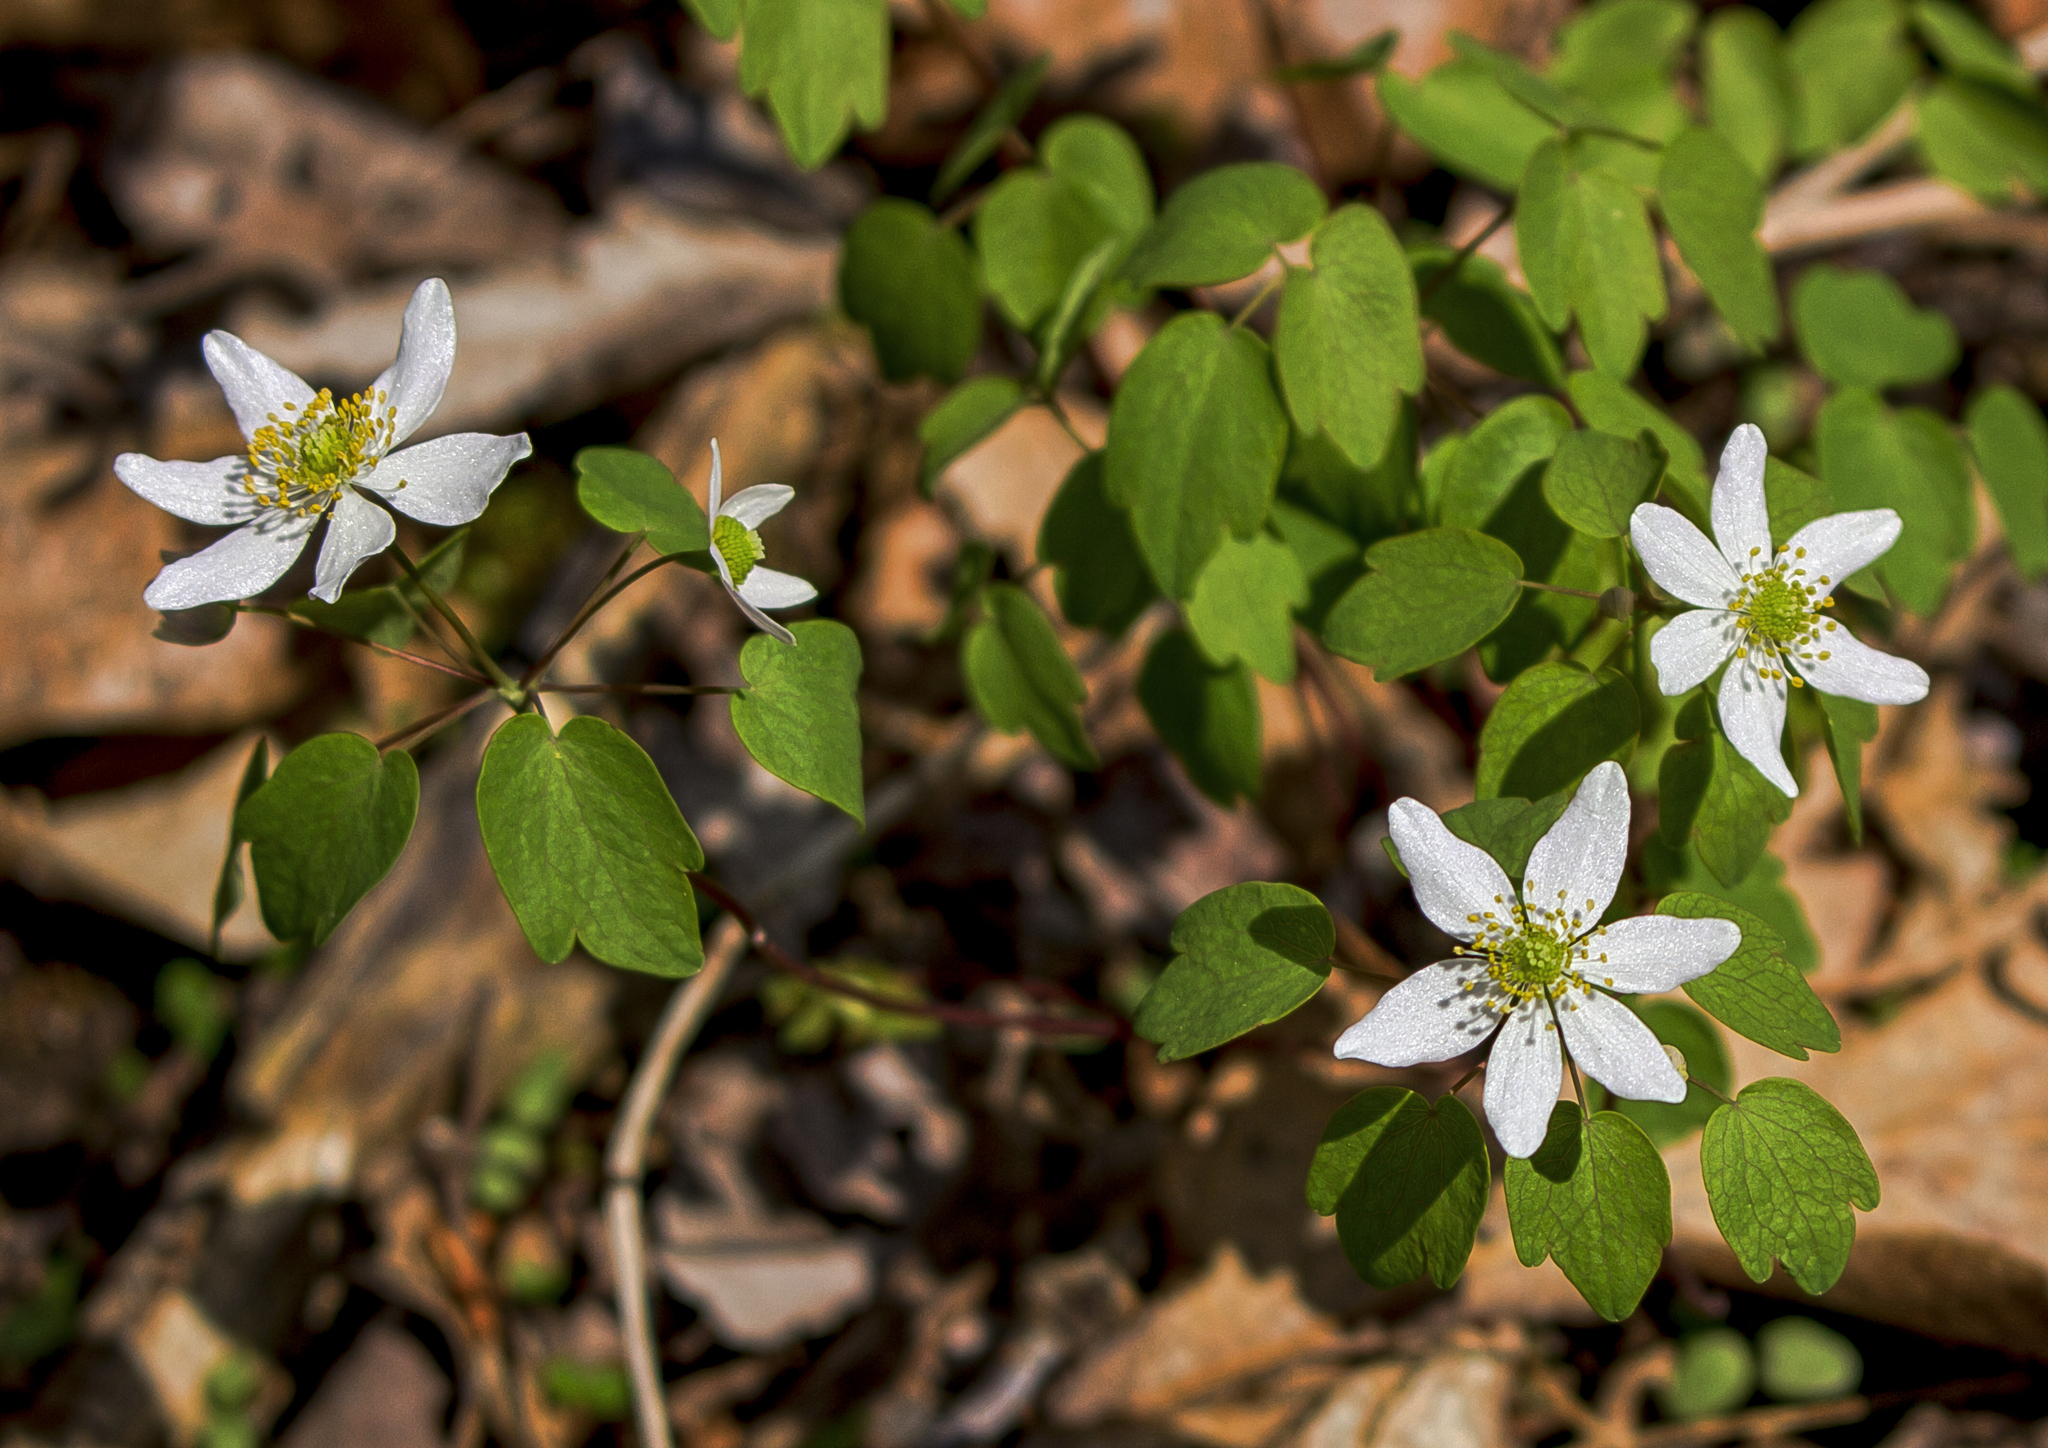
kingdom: Plantae
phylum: Tracheophyta
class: Magnoliopsida
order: Ranunculales
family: Ranunculaceae
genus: Thalictrum
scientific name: Thalictrum thalictroides
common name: Rue-anemone
